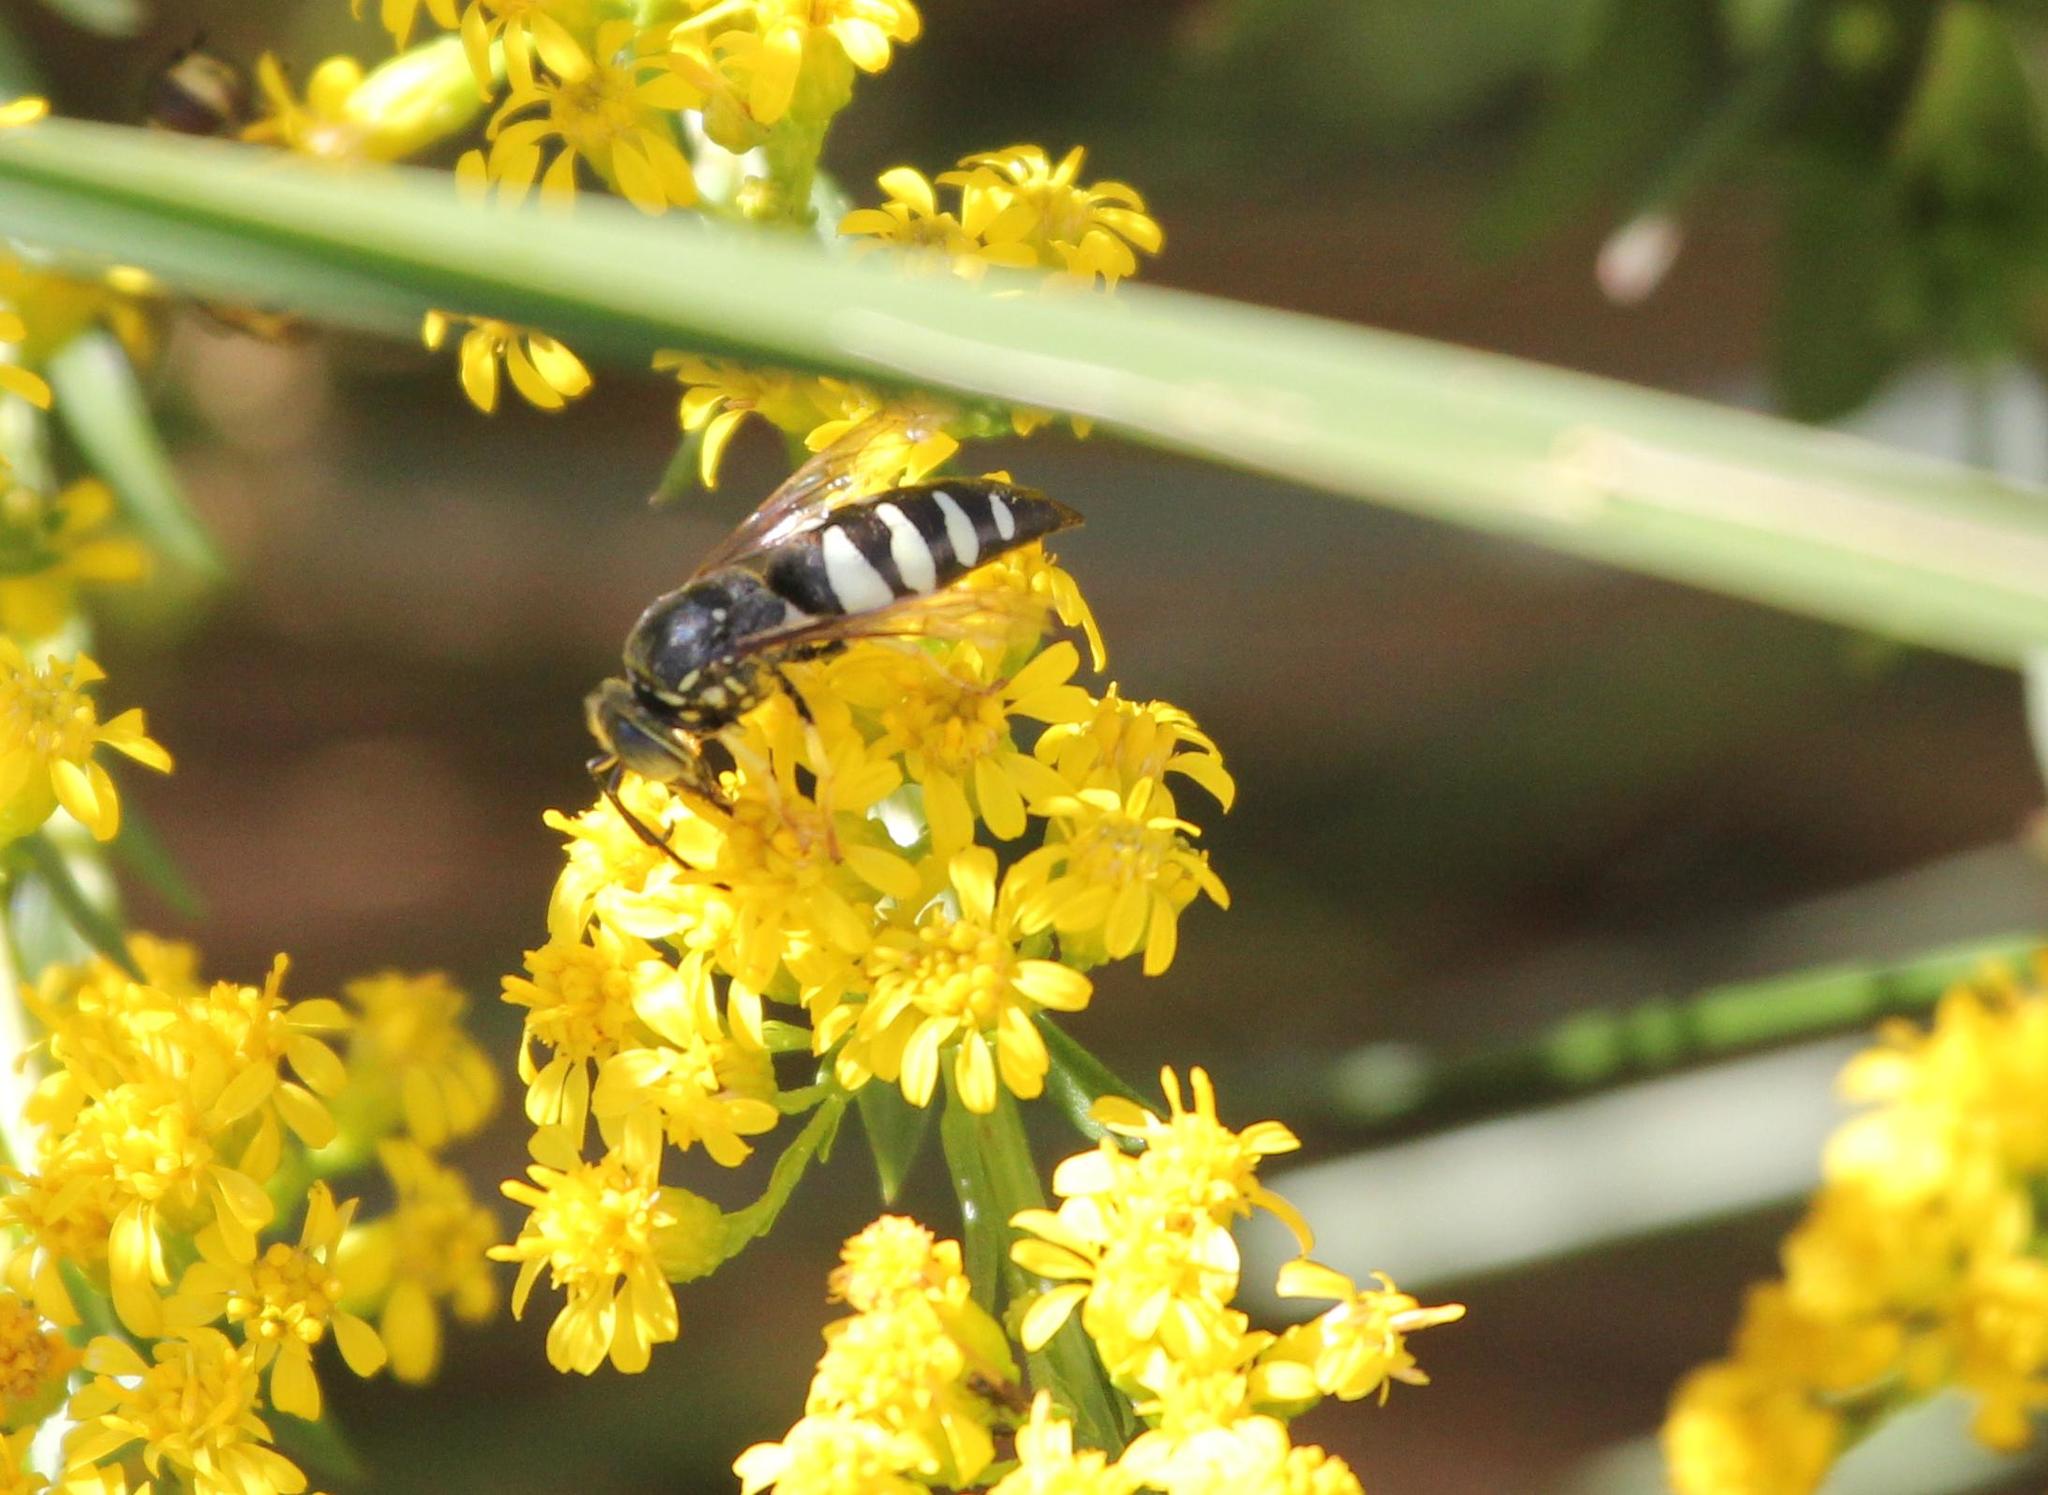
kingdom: Animalia
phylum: Arthropoda
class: Insecta
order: Hymenoptera
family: Crabronidae
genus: Bicyrtes
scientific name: Bicyrtes quadrifasciatus
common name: Four-banded stink bug hunter wasp
